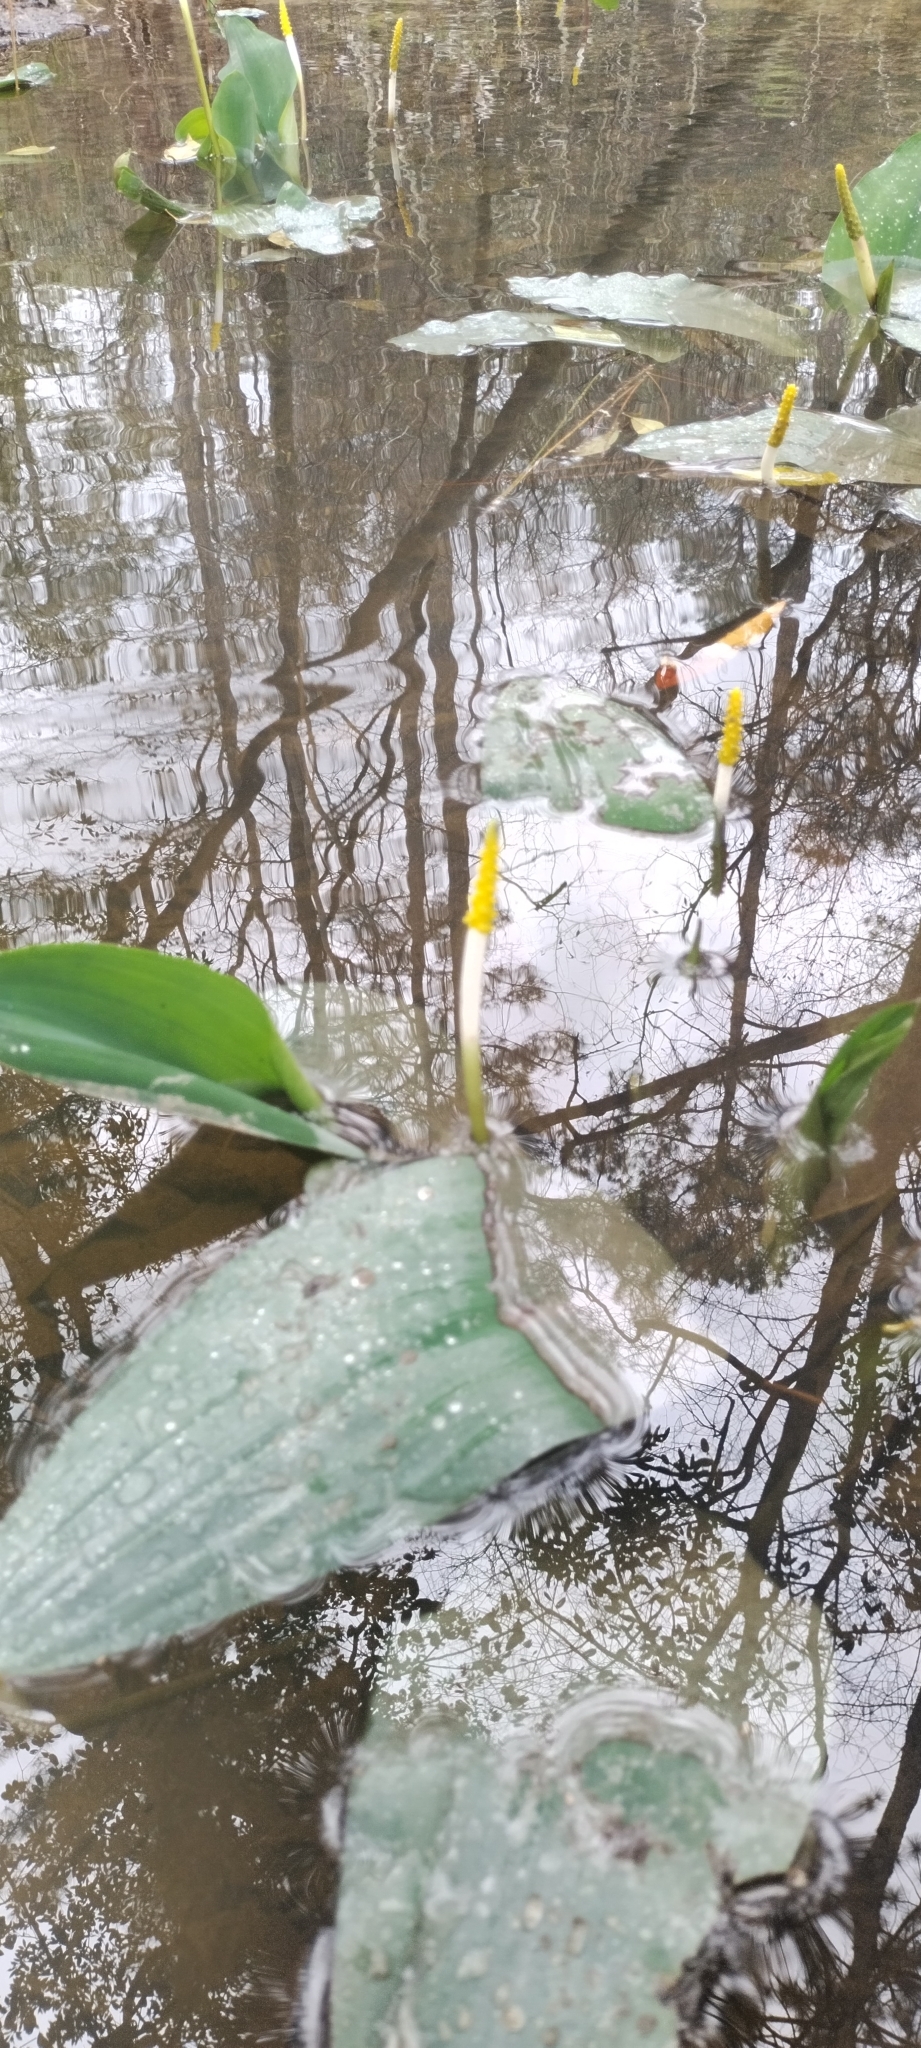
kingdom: Plantae
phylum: Tracheophyta
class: Liliopsida
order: Alismatales
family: Araceae
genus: Orontium
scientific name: Orontium aquaticum
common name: Golden-club
